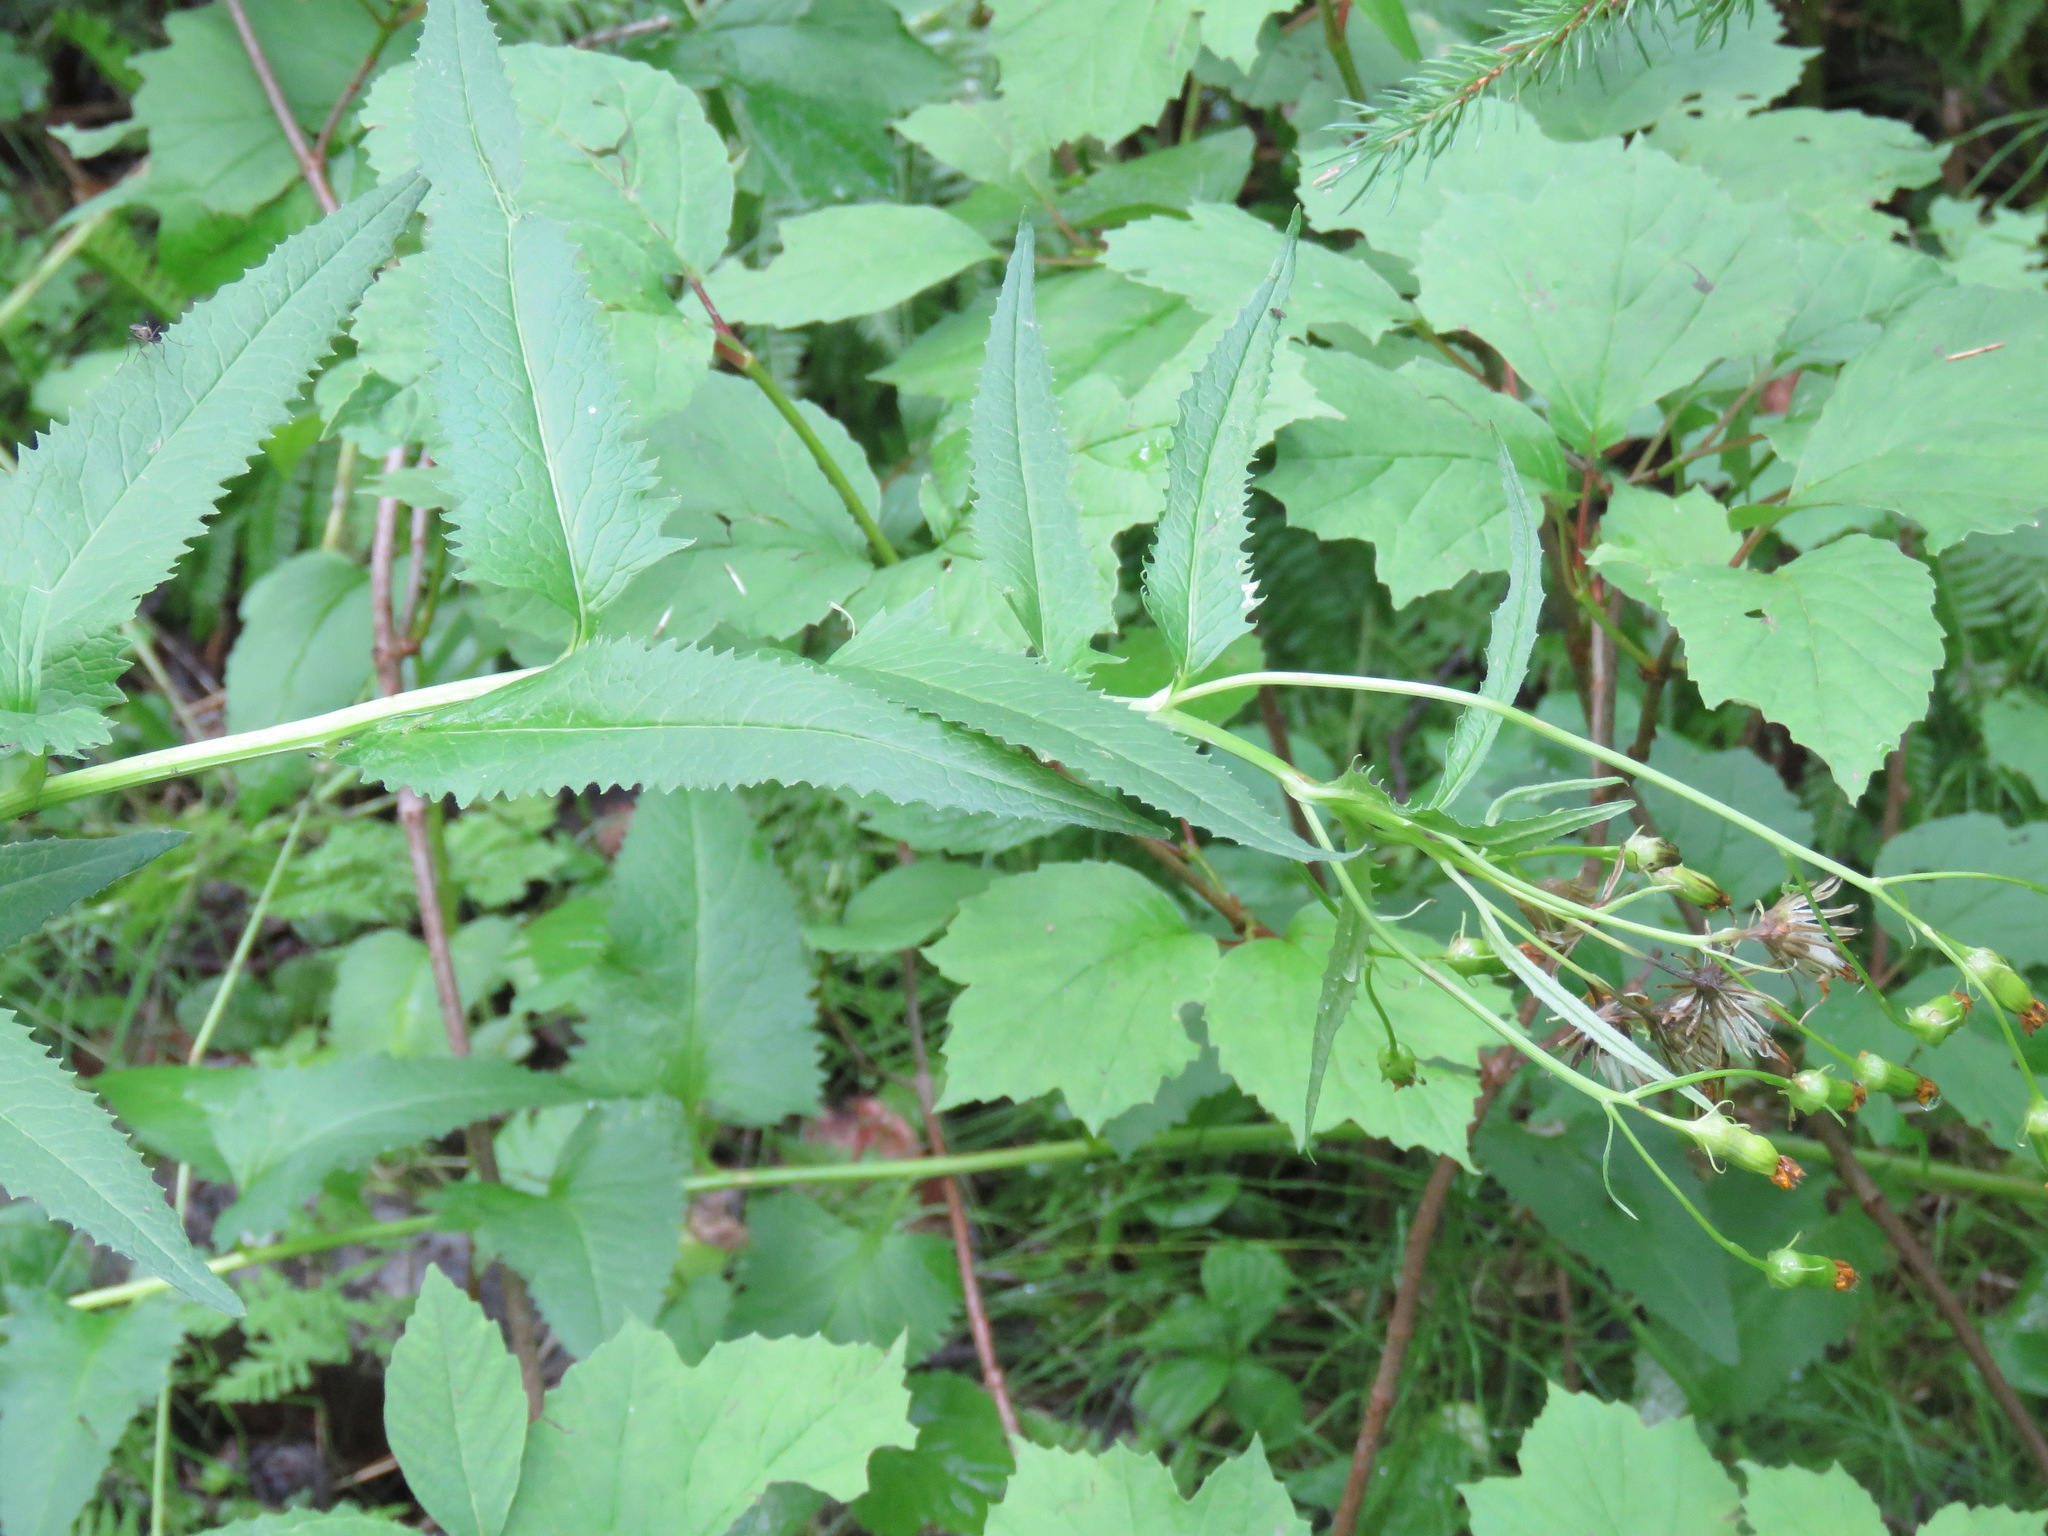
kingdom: Plantae
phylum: Tracheophyta
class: Magnoliopsida
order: Asterales
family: Asteraceae
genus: Senecio
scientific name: Senecio triangularis
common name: Arrowleaf butterweed
